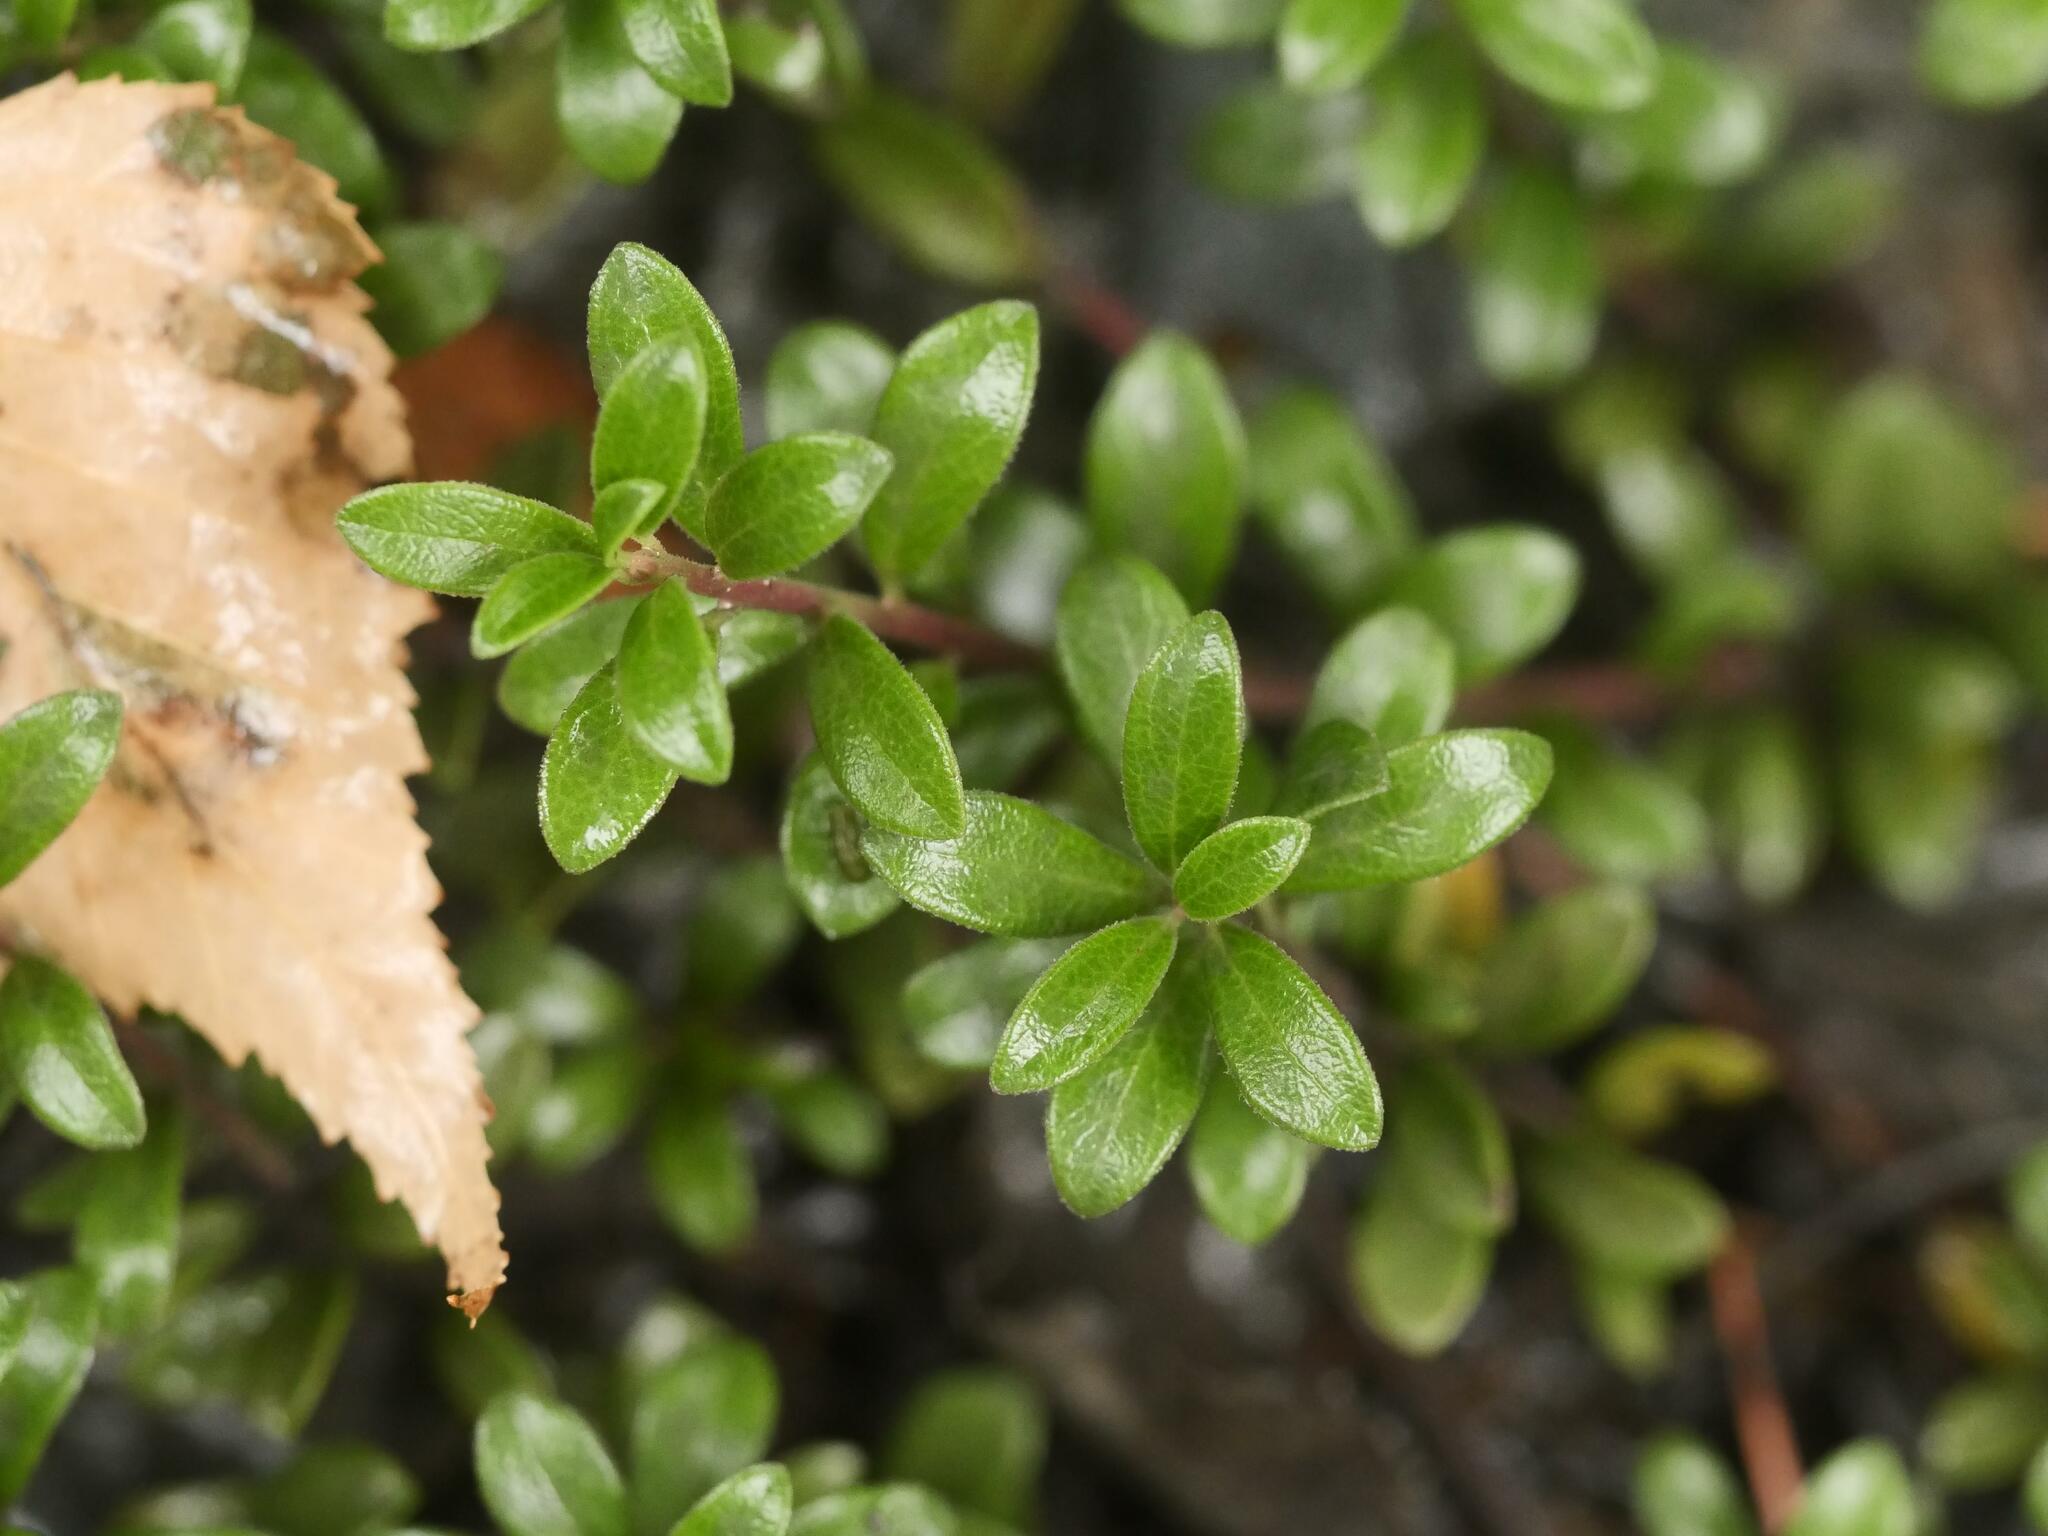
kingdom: Plantae
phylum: Tracheophyta
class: Magnoliopsida
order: Ericales
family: Ericaceae
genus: Arctostaphylos
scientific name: Arctostaphylos uva-ursi
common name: Bearberry
